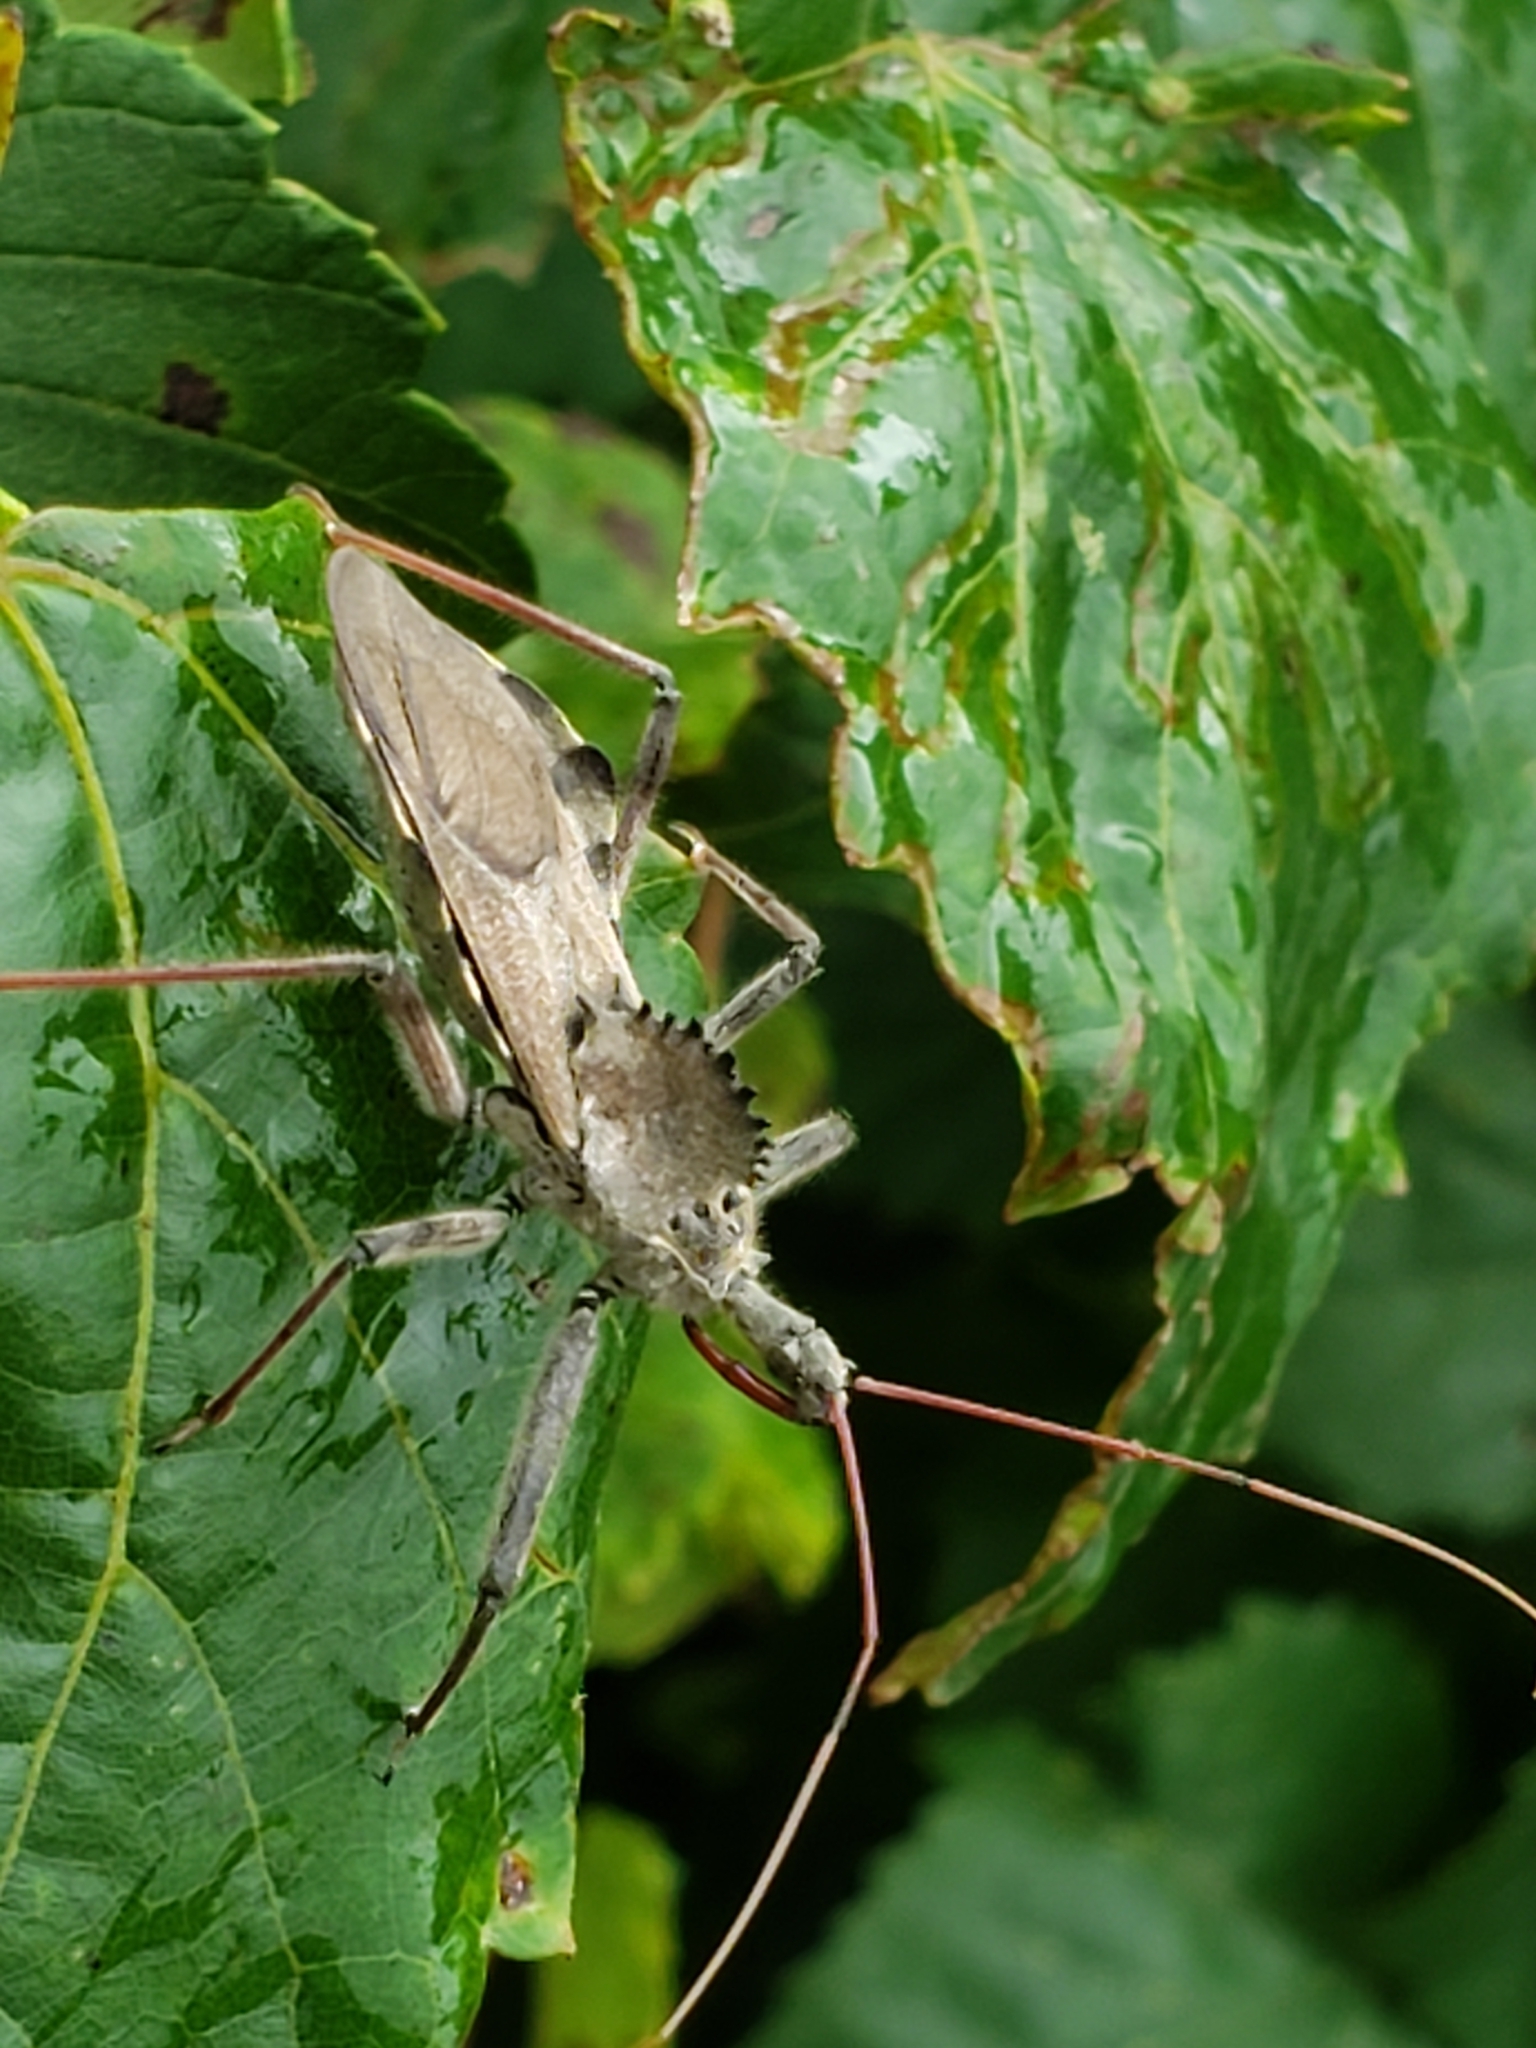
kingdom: Animalia
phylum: Arthropoda
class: Insecta
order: Hemiptera
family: Reduviidae
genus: Arilus
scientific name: Arilus cristatus
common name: North american wheel bug
